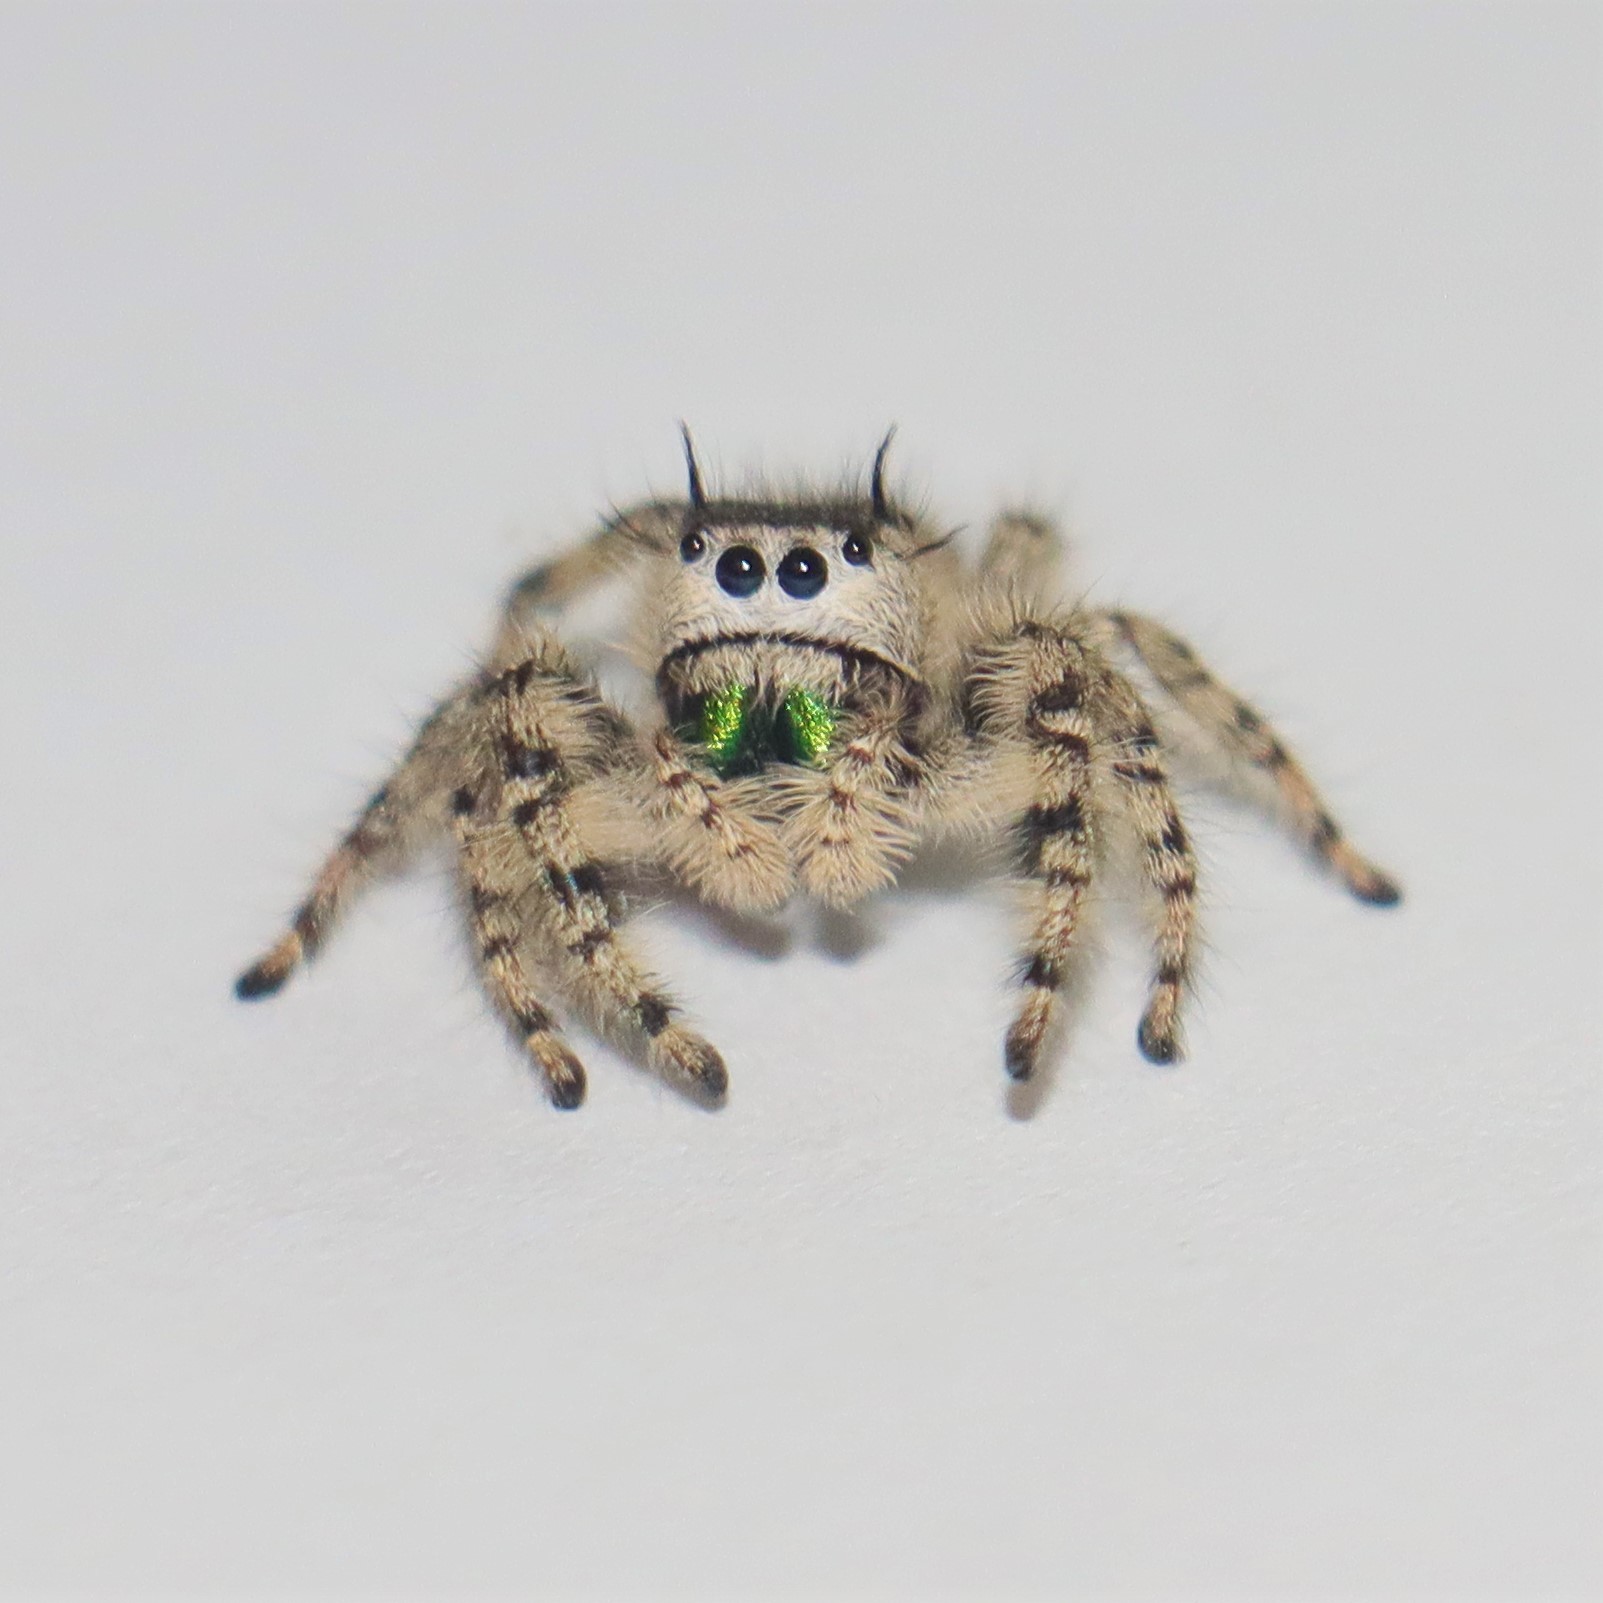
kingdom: Animalia
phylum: Arthropoda
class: Arachnida
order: Araneae
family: Salticidae
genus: Phidippus
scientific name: Phidippus otiosus
